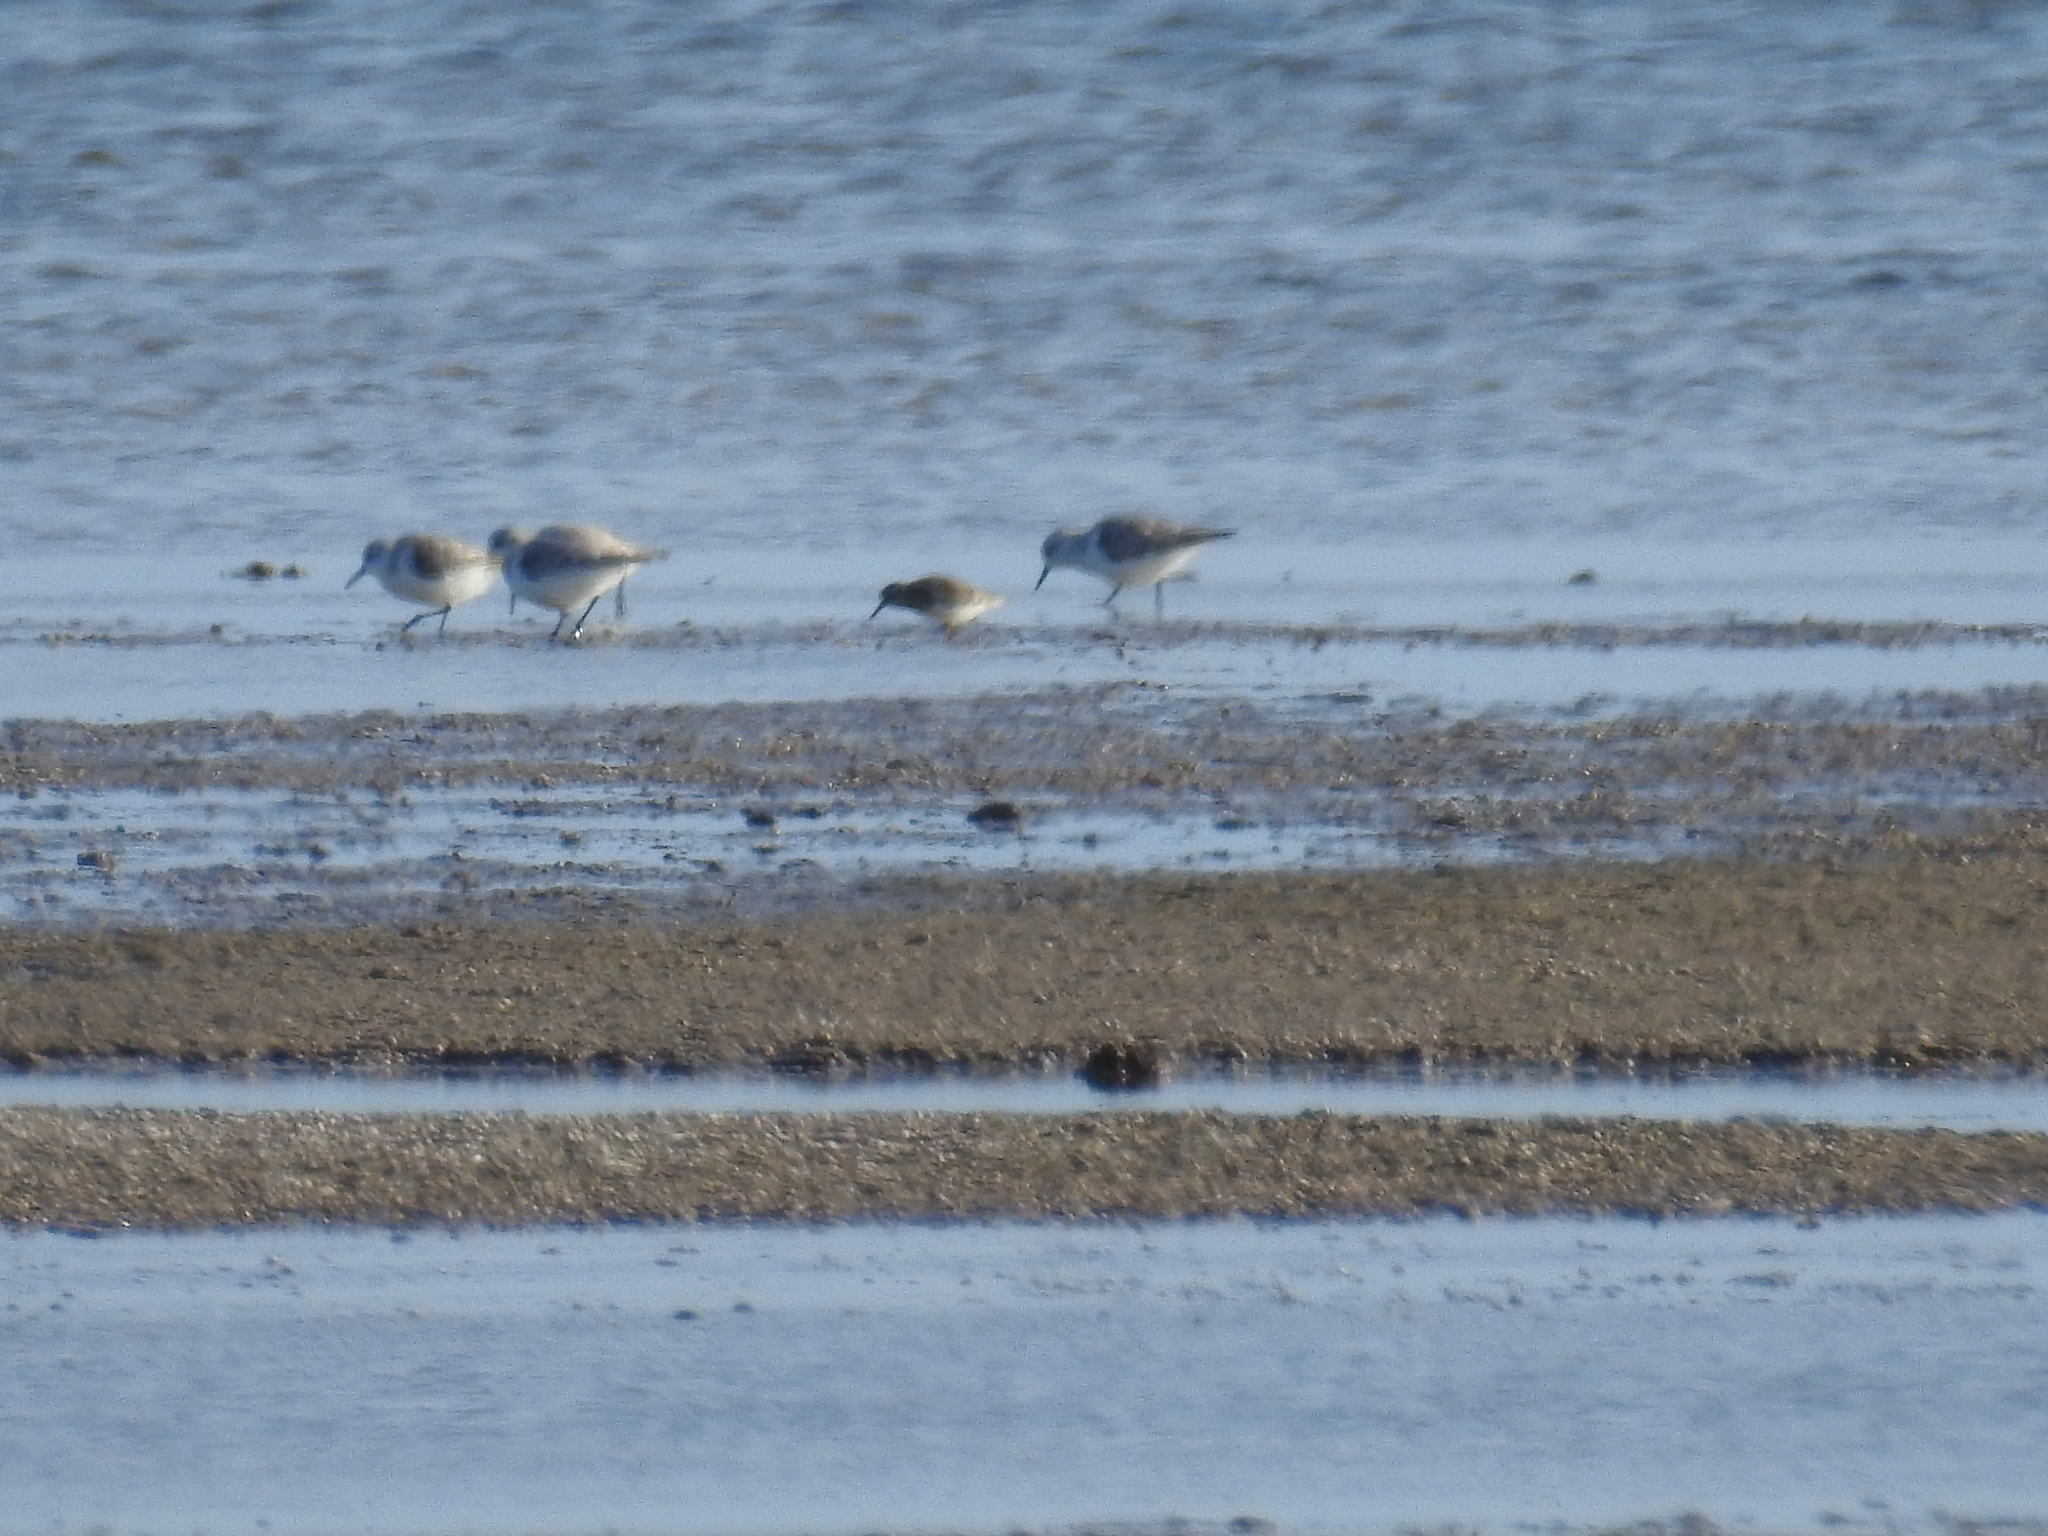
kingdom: Animalia
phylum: Chordata
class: Aves
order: Charadriiformes
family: Scolopacidae
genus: Calidris
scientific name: Calidris minutilla
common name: Least sandpiper
